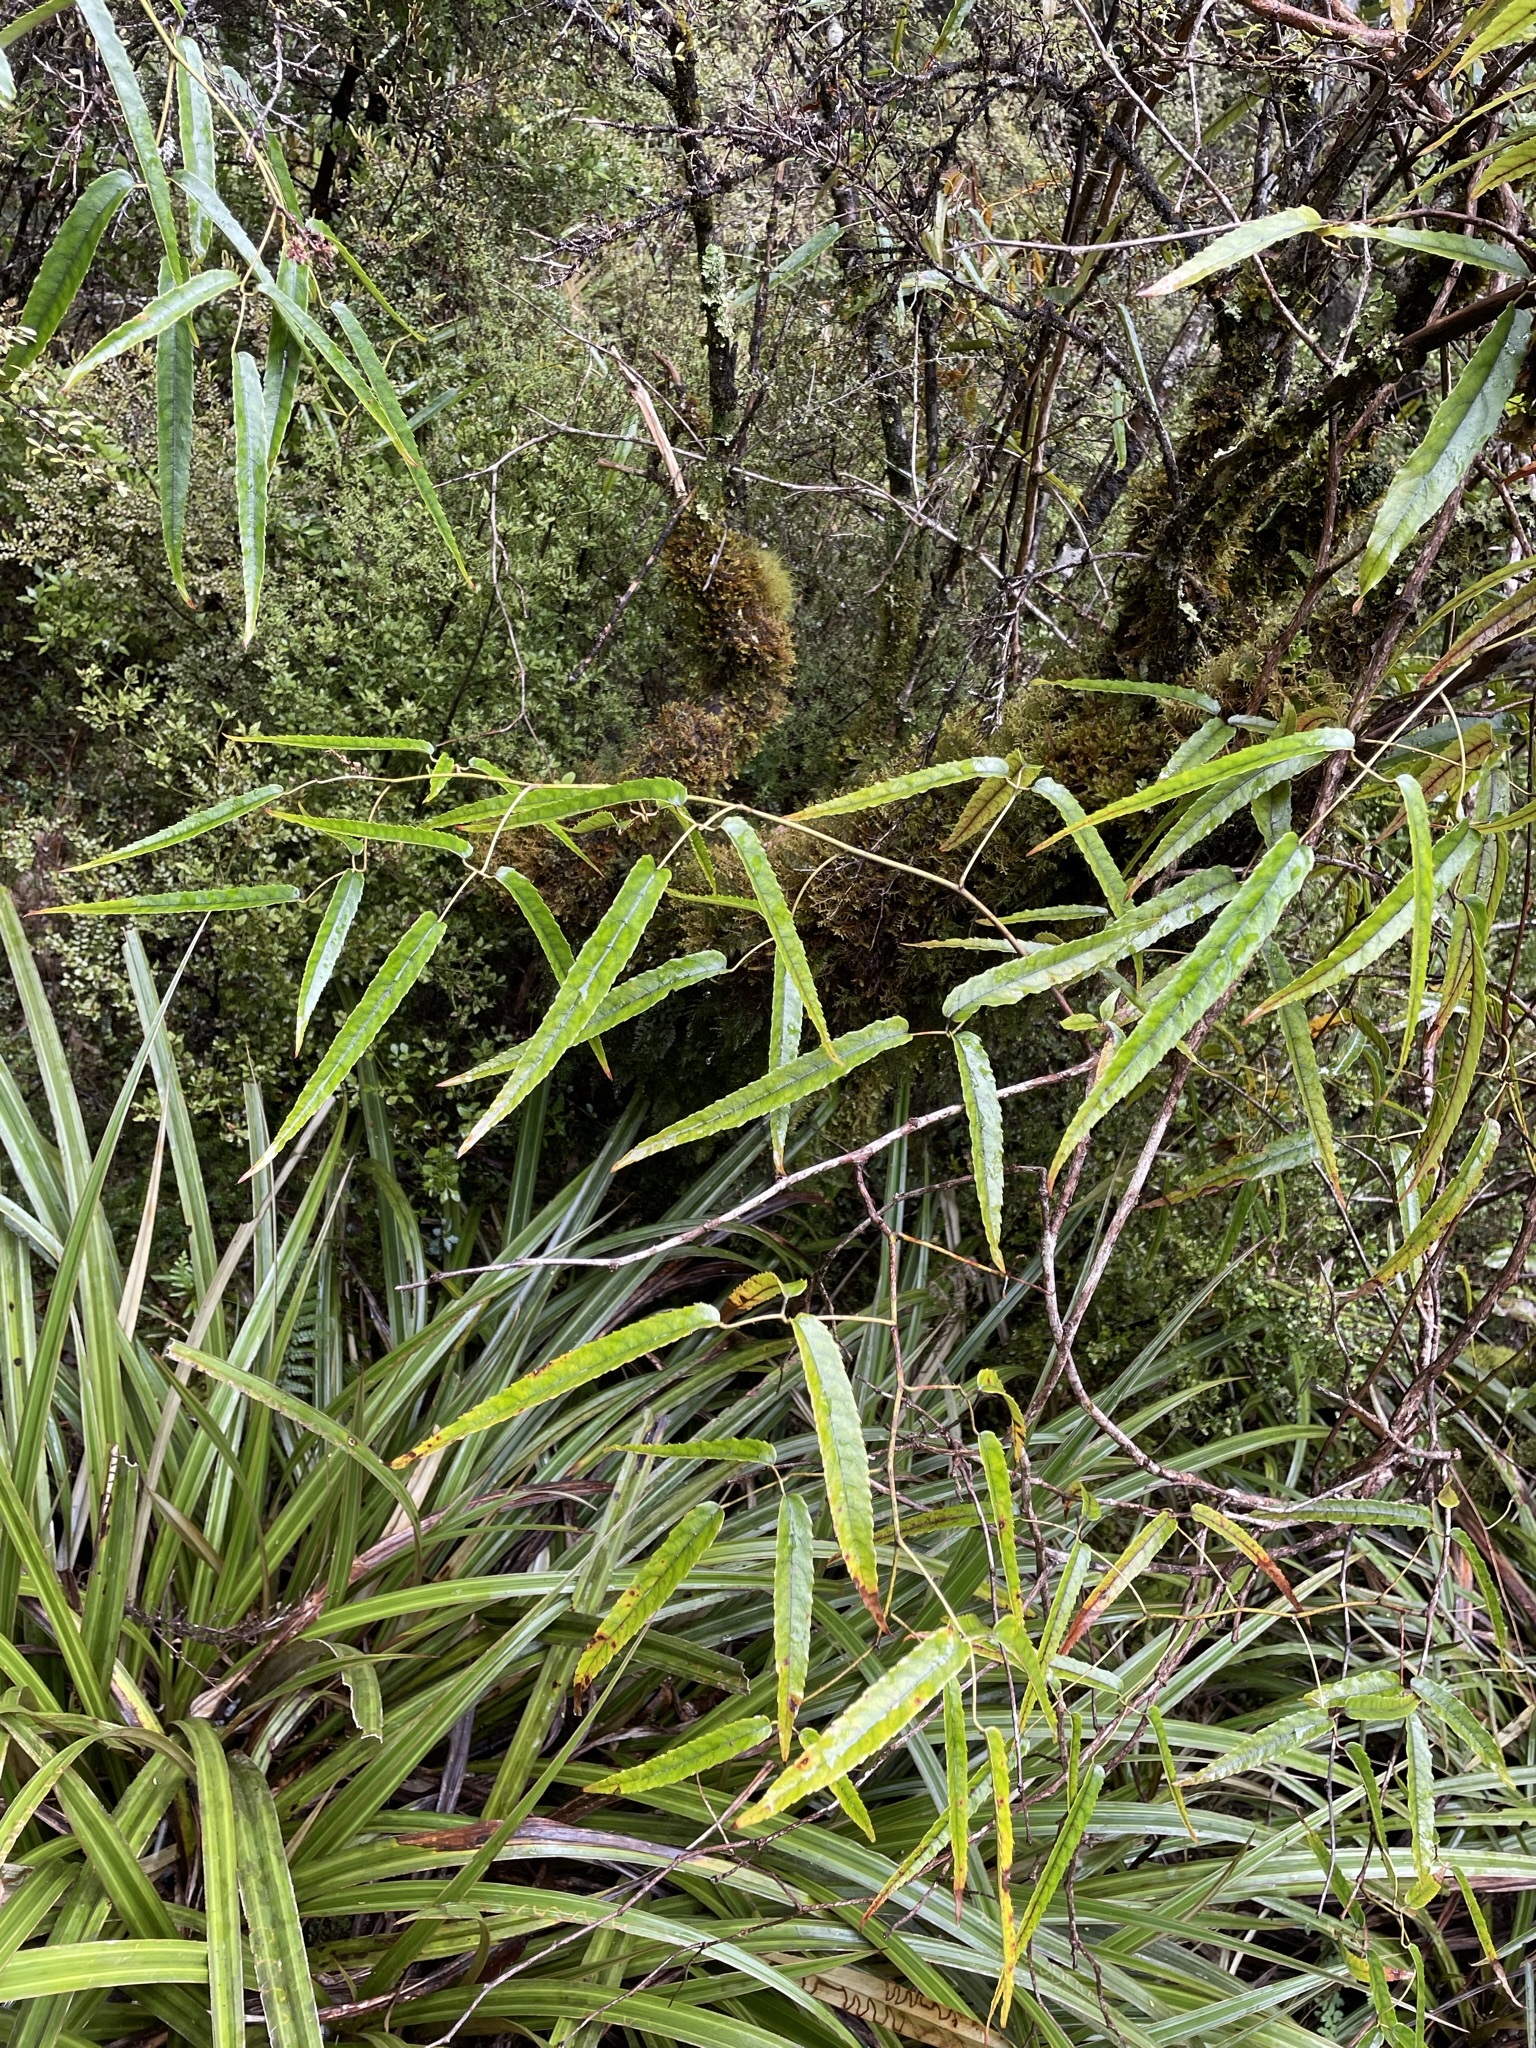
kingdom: Plantae
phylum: Tracheophyta
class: Magnoliopsida
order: Rosales
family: Rosaceae
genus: Rubus
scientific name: Rubus cissoides
